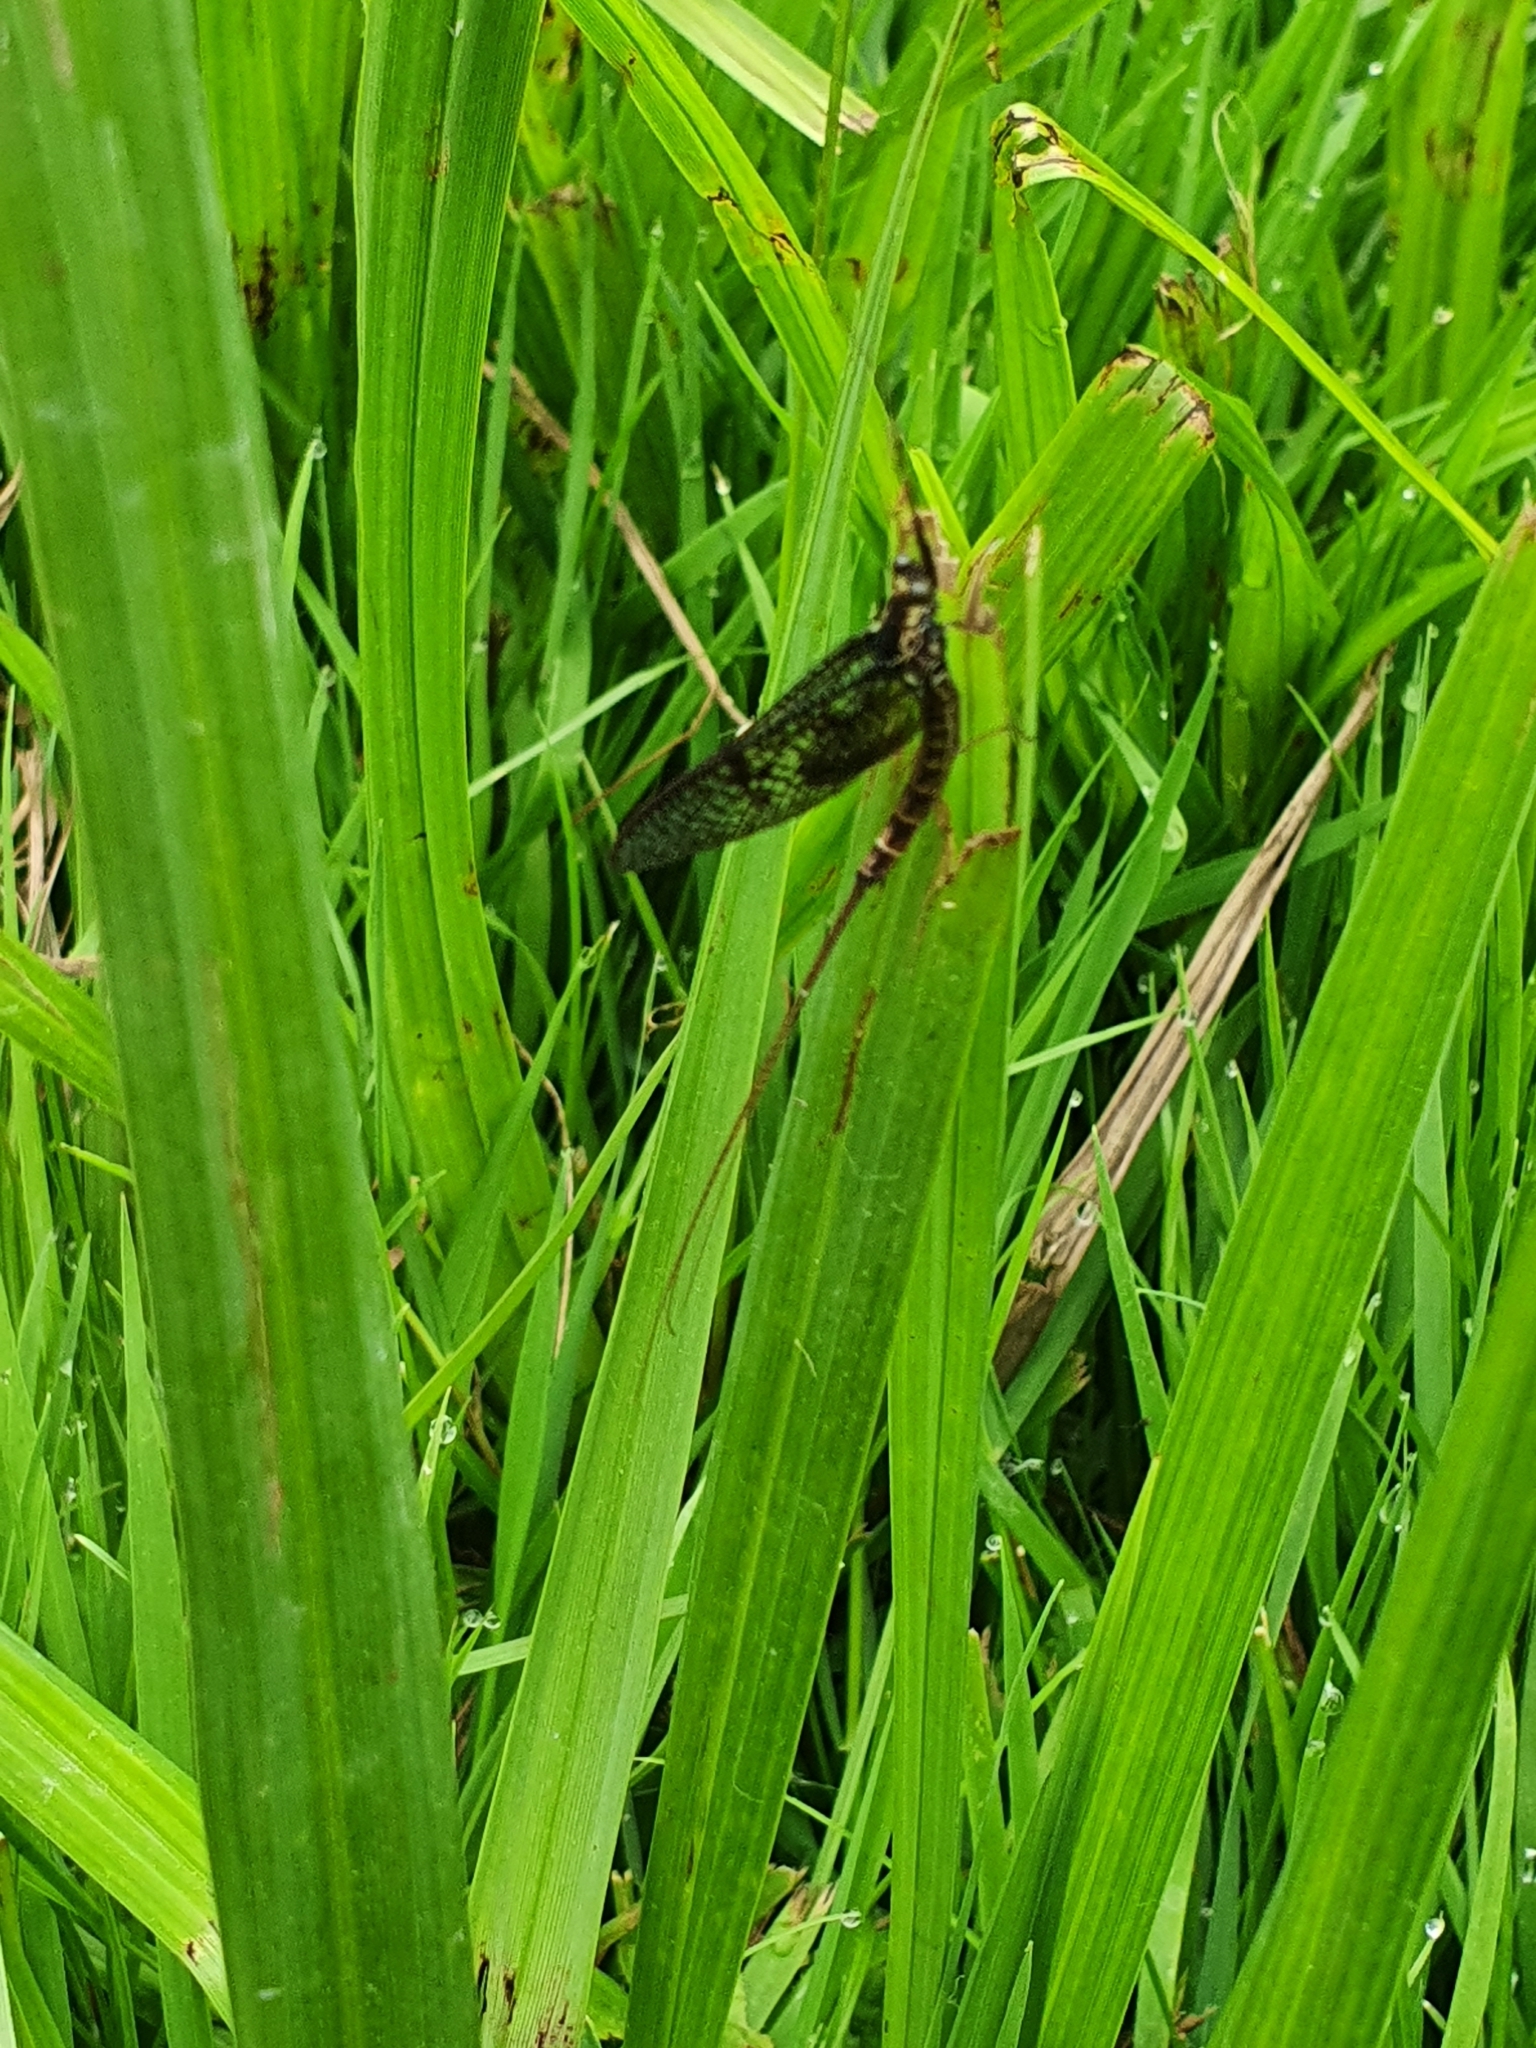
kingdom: Animalia
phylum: Arthropoda
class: Insecta
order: Ephemeroptera
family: Ephemeridae
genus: Ephemera
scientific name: Ephemera vulgata
